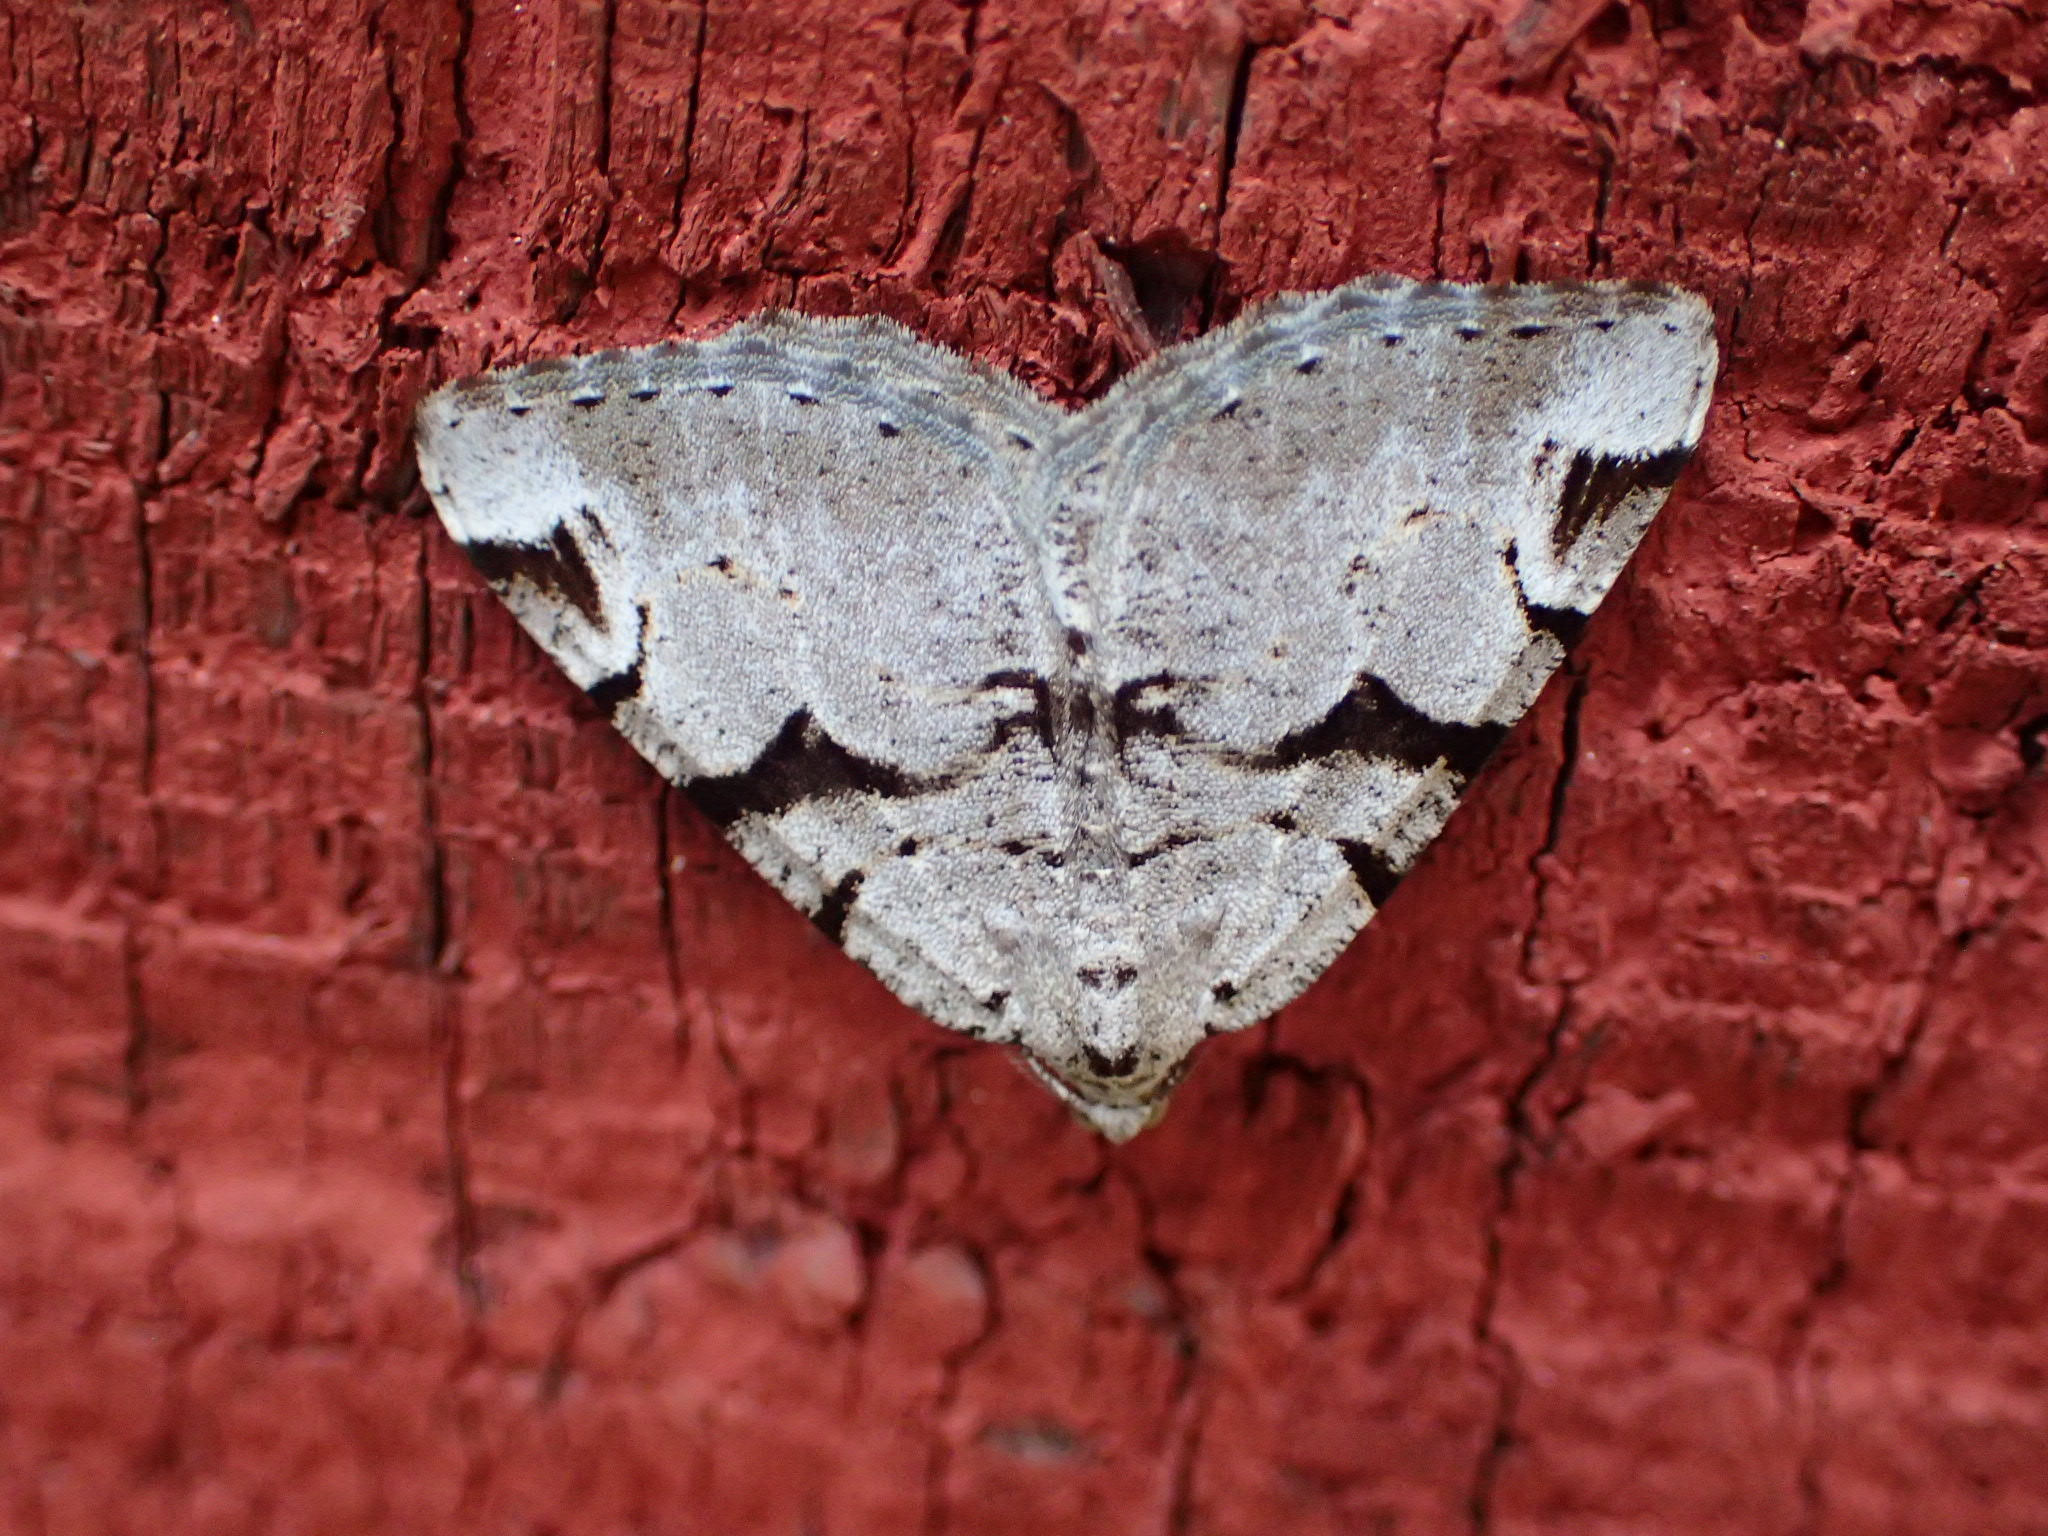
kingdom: Animalia
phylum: Arthropoda
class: Insecta
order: Lepidoptera
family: Geometridae
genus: Macaria
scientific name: Macaria bitactata
